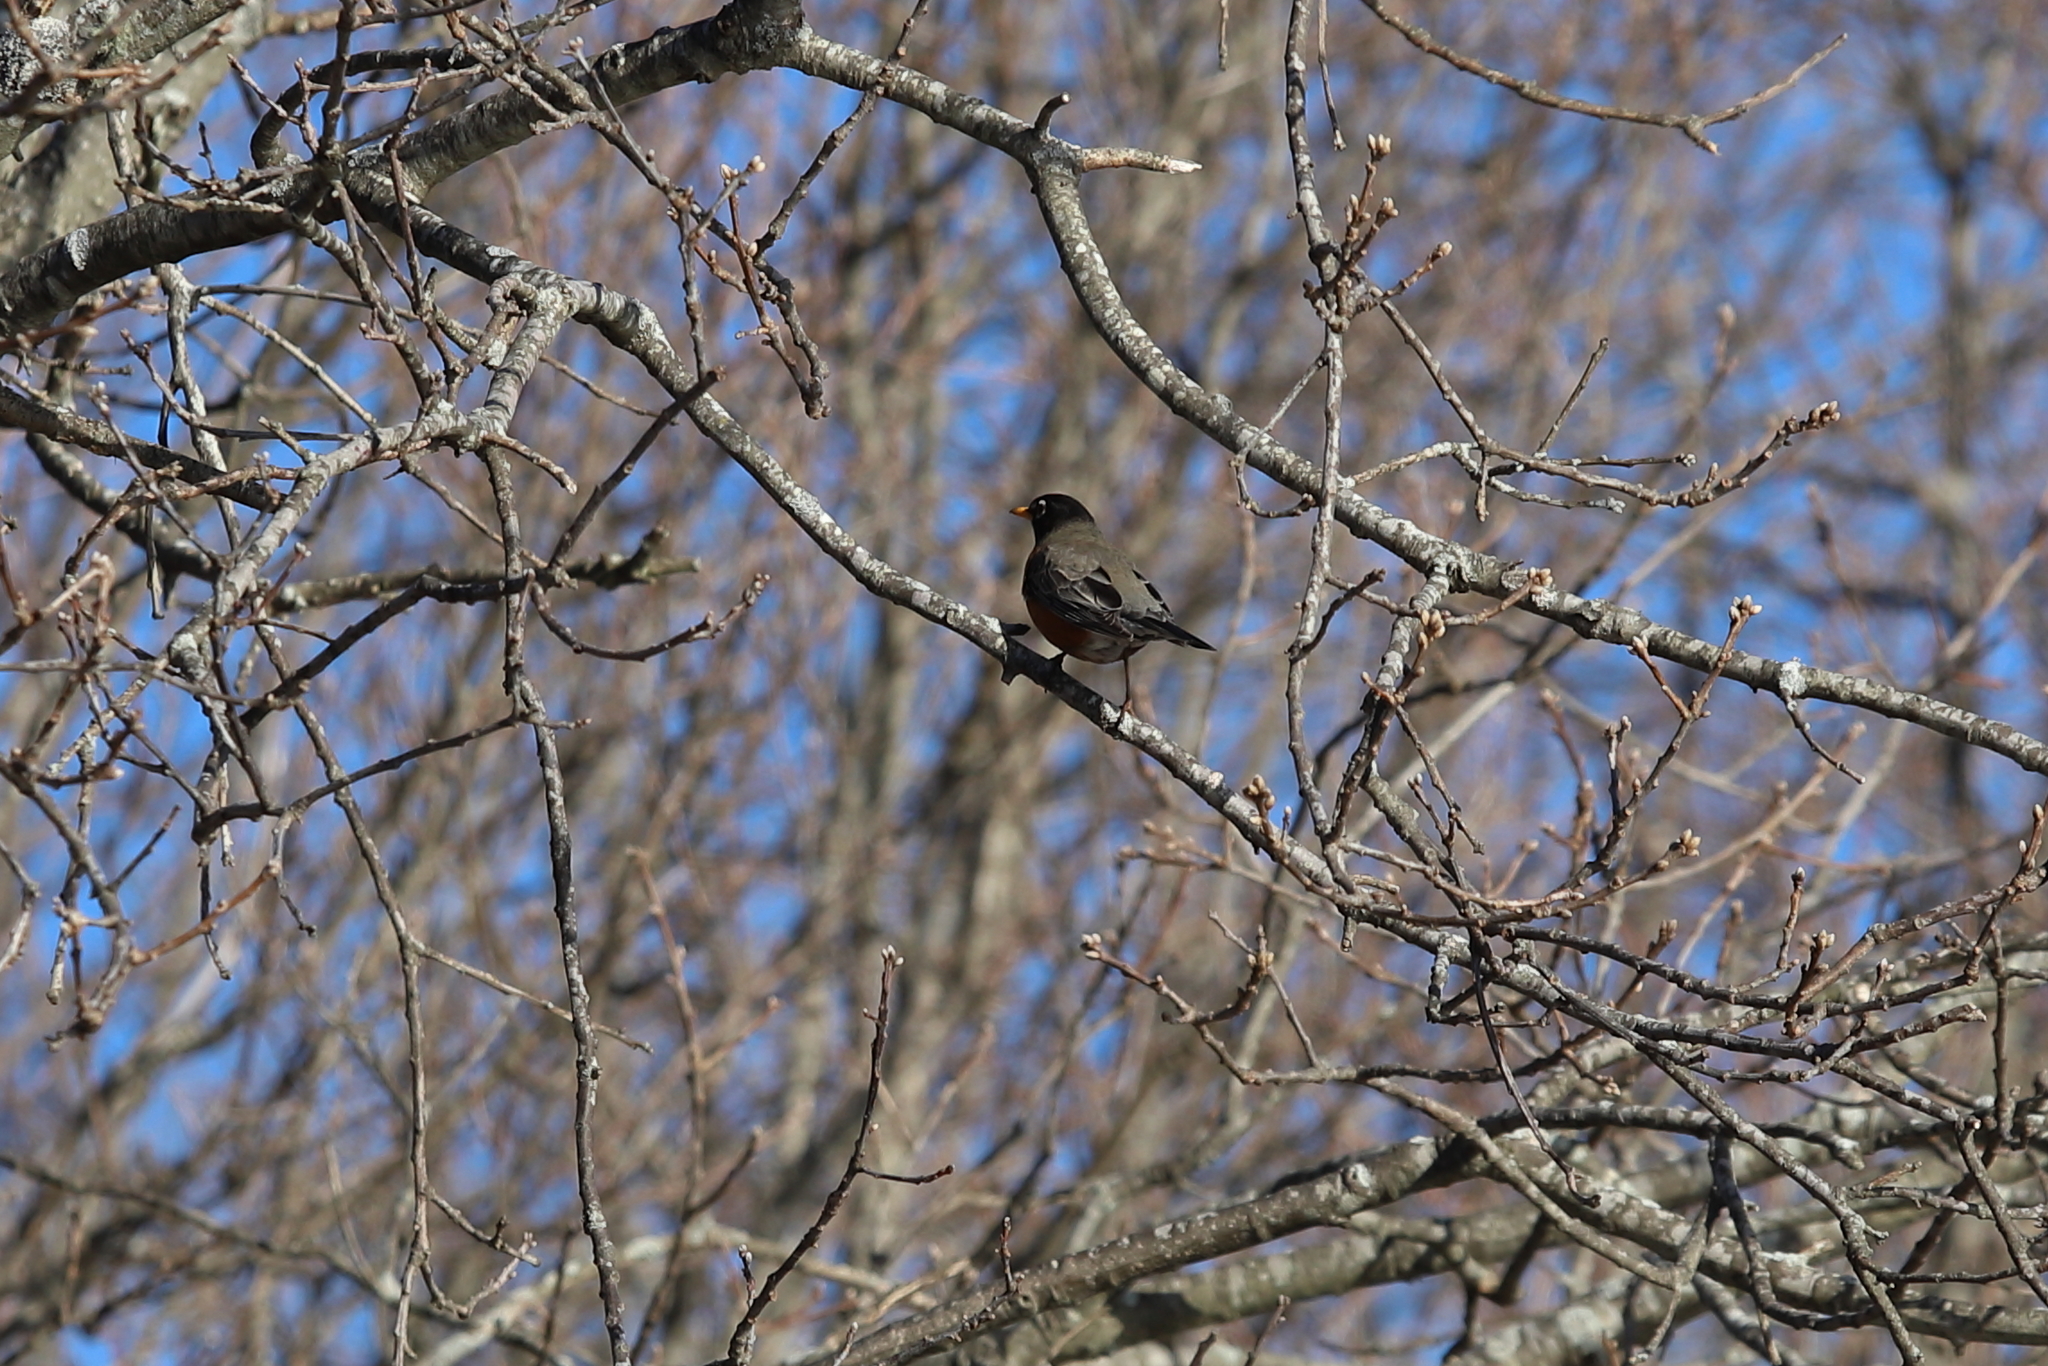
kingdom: Animalia
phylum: Chordata
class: Aves
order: Passeriformes
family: Turdidae
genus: Turdus
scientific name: Turdus migratorius
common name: American robin
